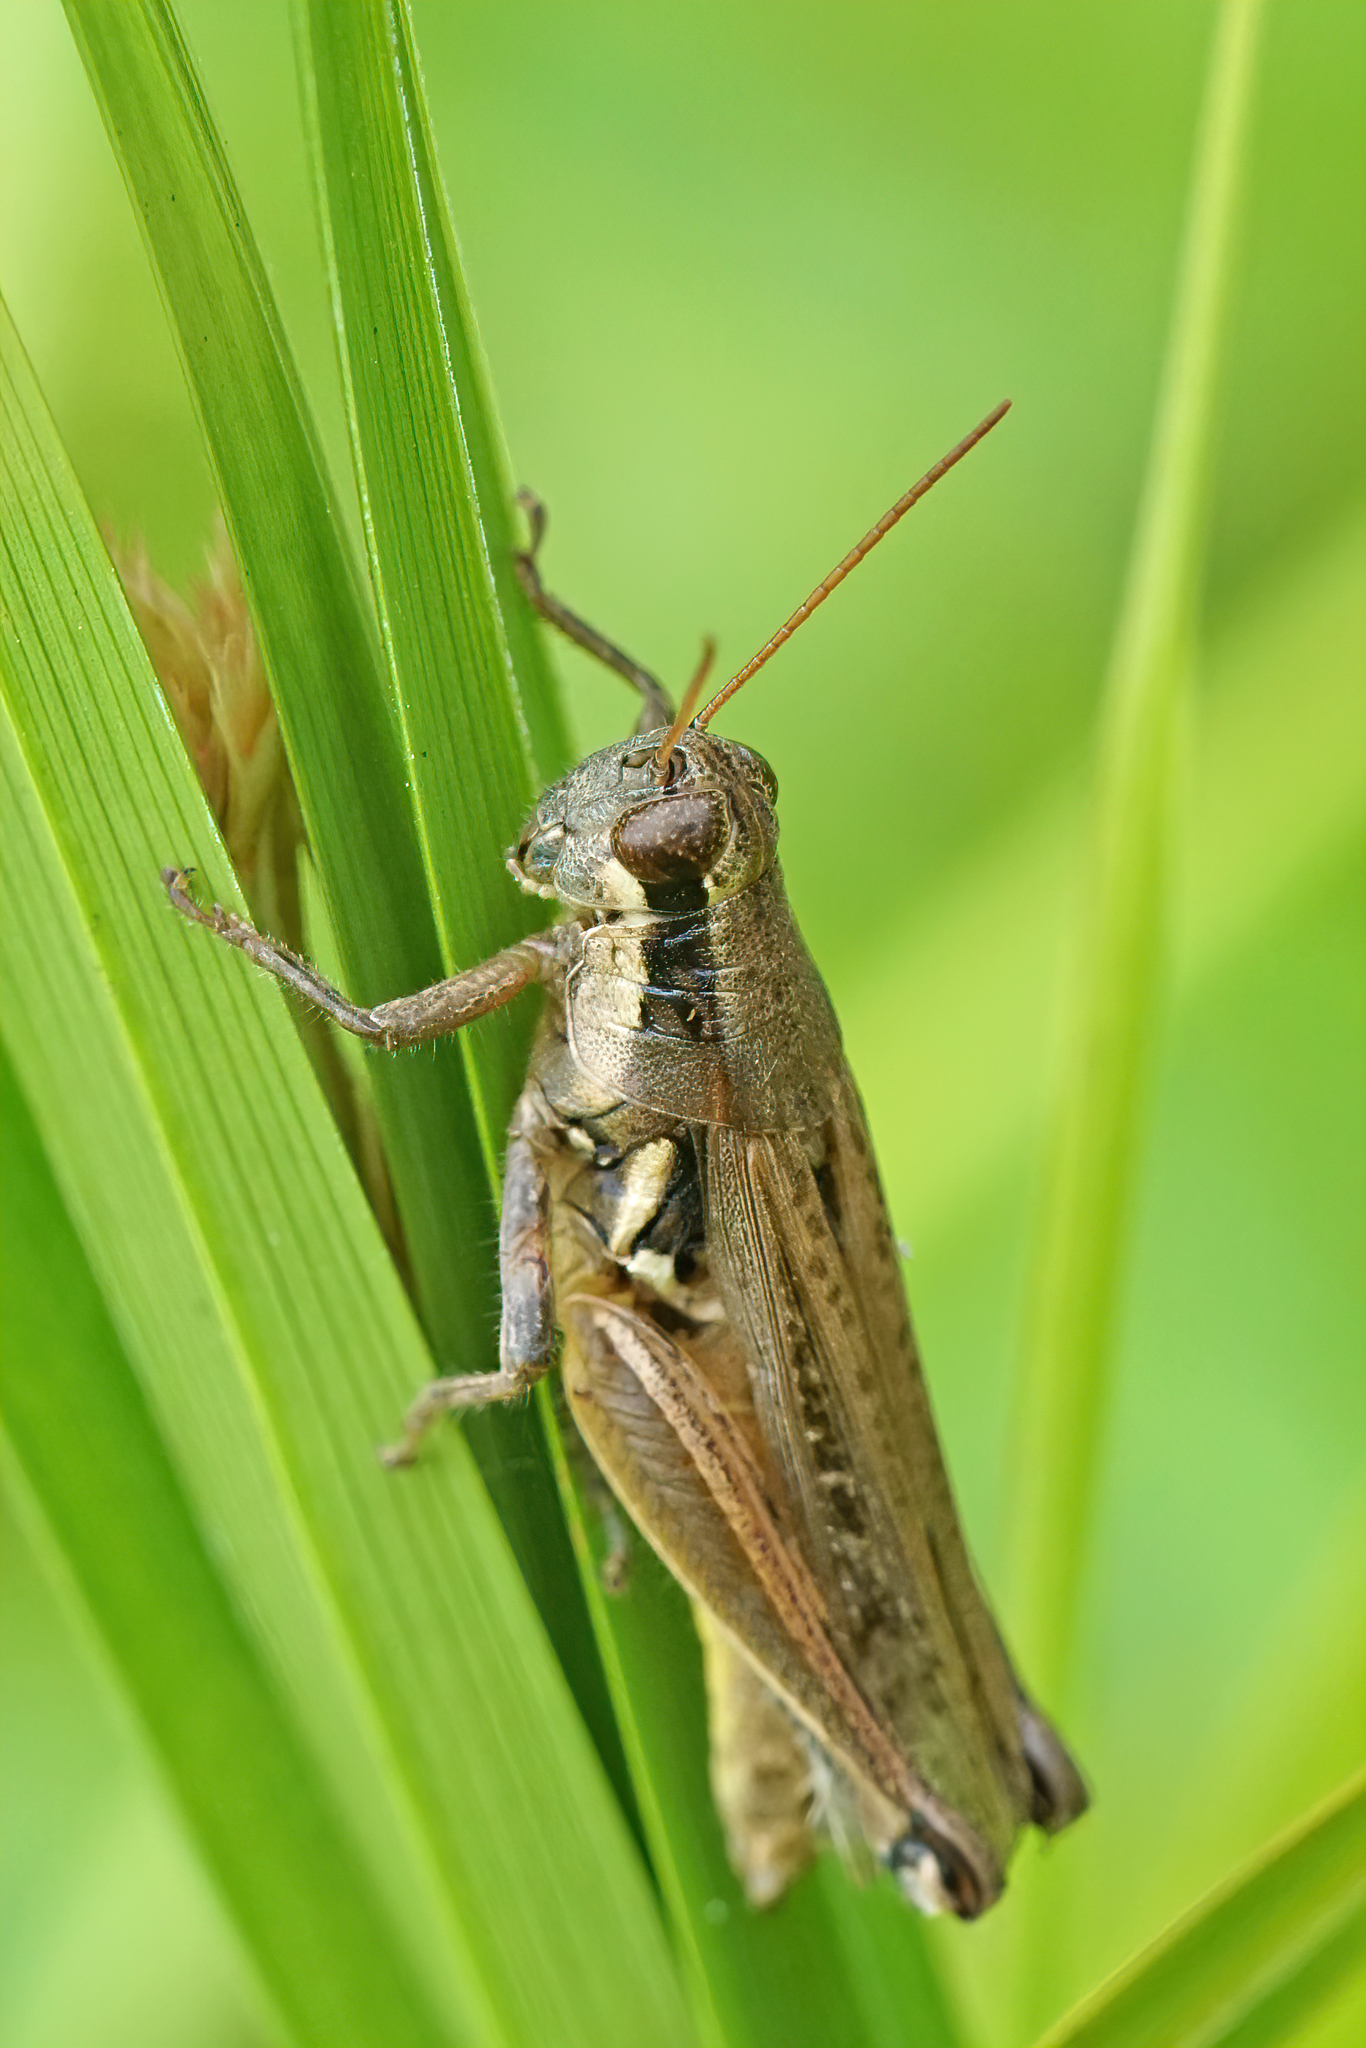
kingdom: Animalia
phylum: Arthropoda
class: Insecta
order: Orthoptera
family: Acrididae
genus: Paroxya
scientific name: Paroxya atlantica
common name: Atlantic grasshopper
